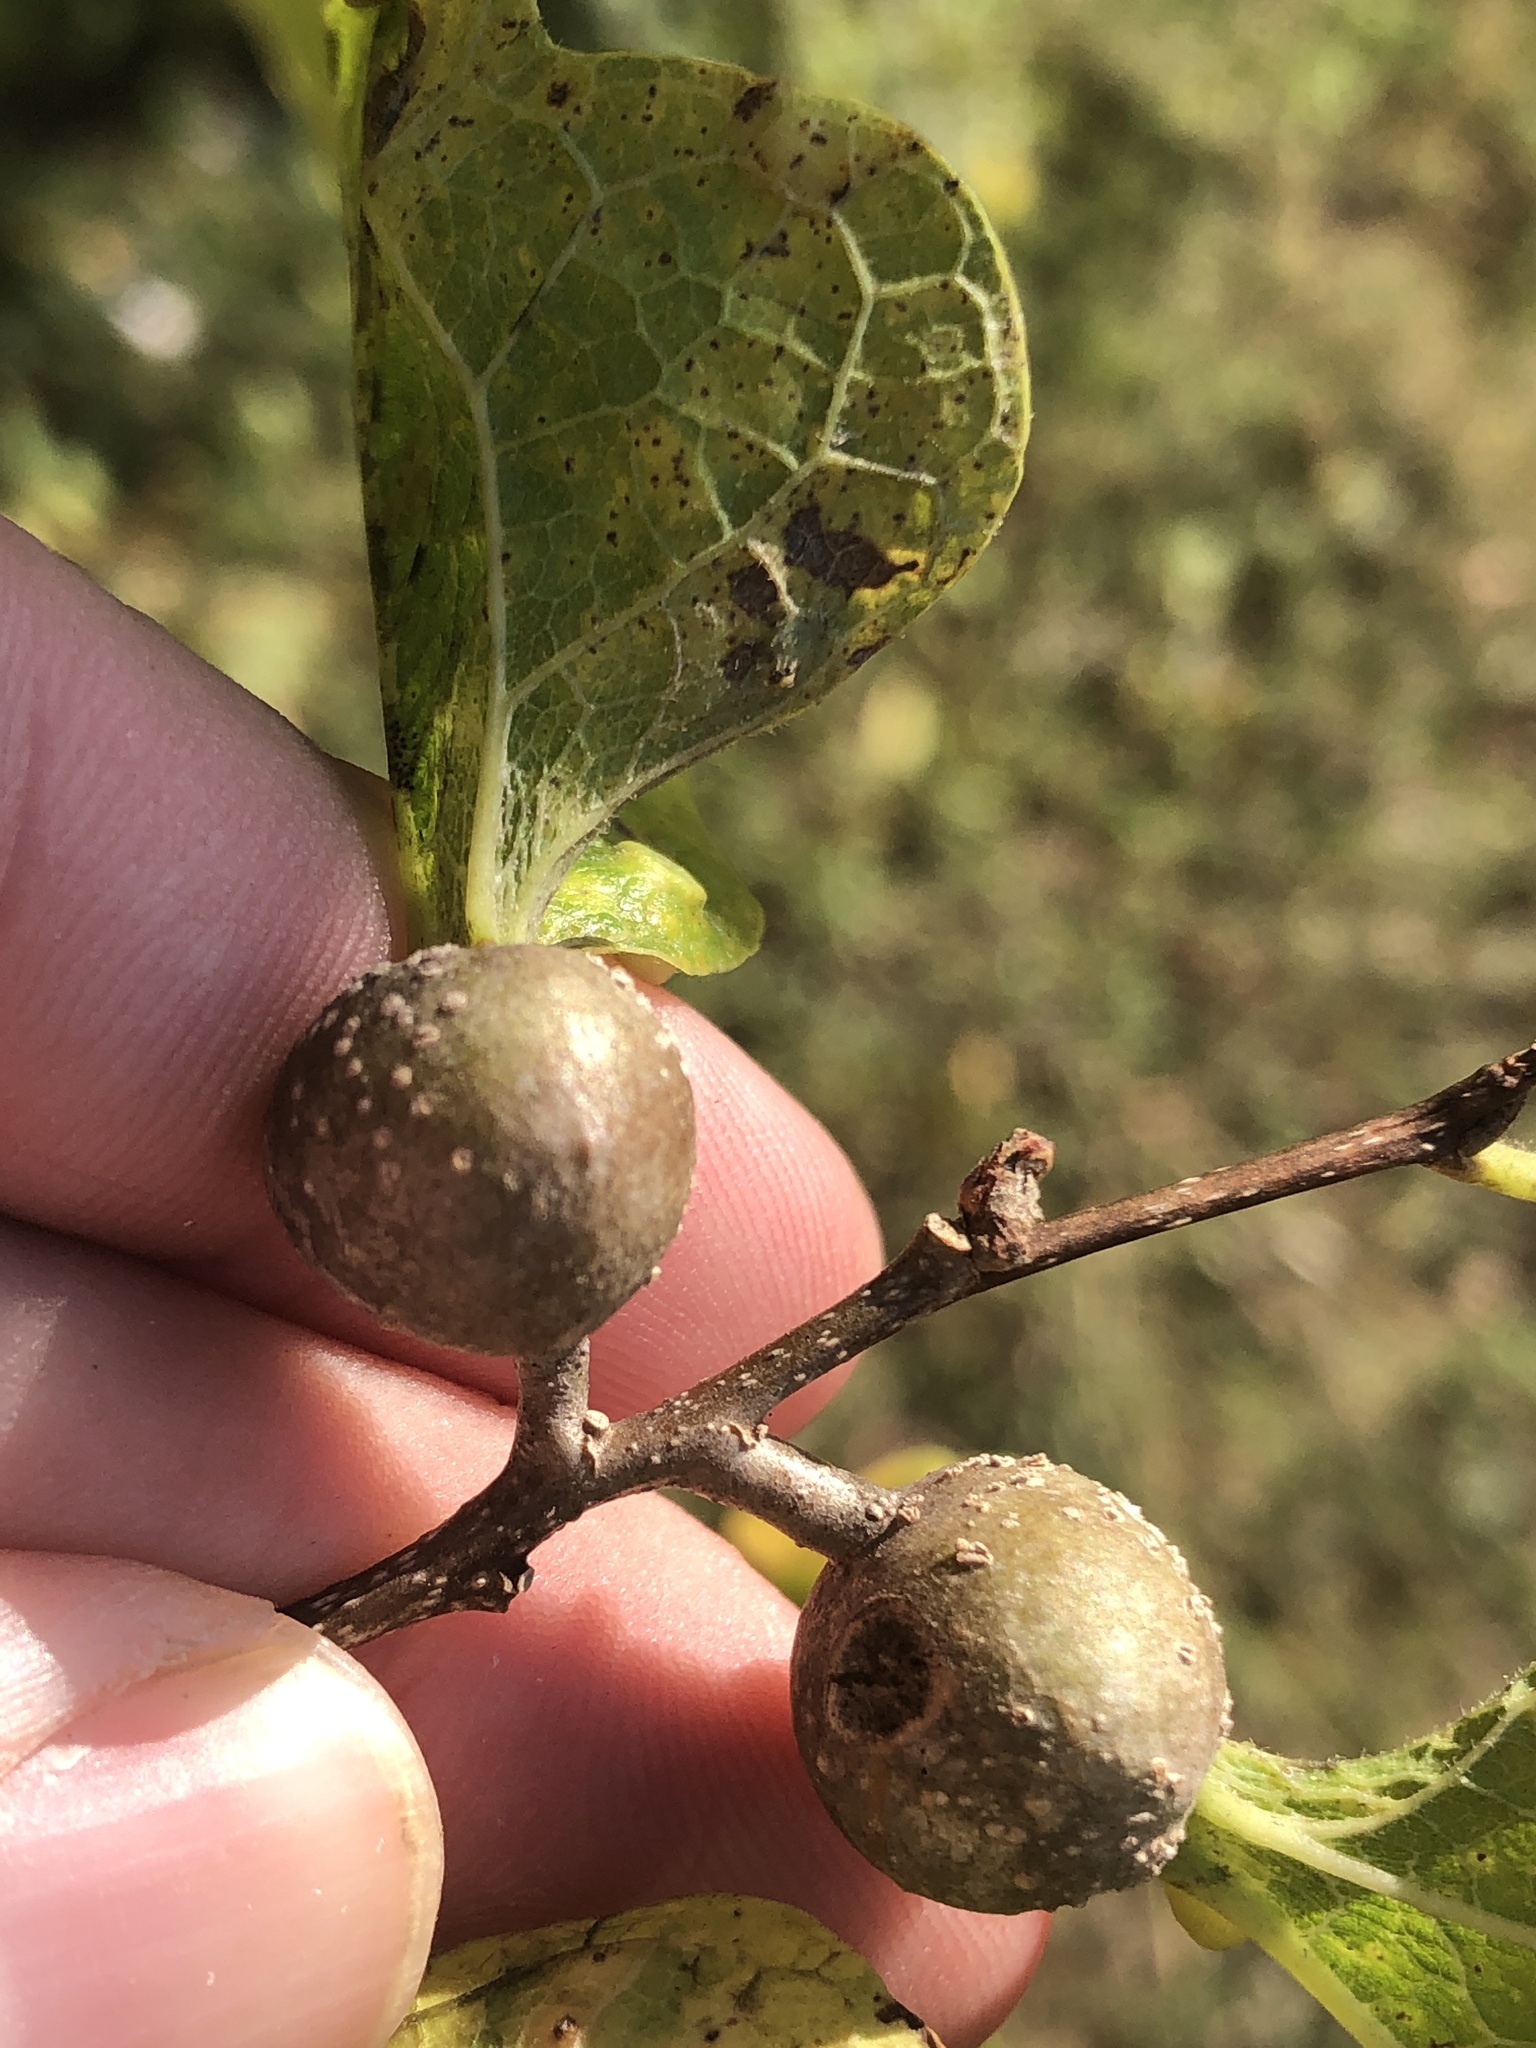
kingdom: Animalia
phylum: Arthropoda
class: Insecta
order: Hemiptera
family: Aphalaridae
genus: Pachypsylla
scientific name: Pachypsylla venusta
